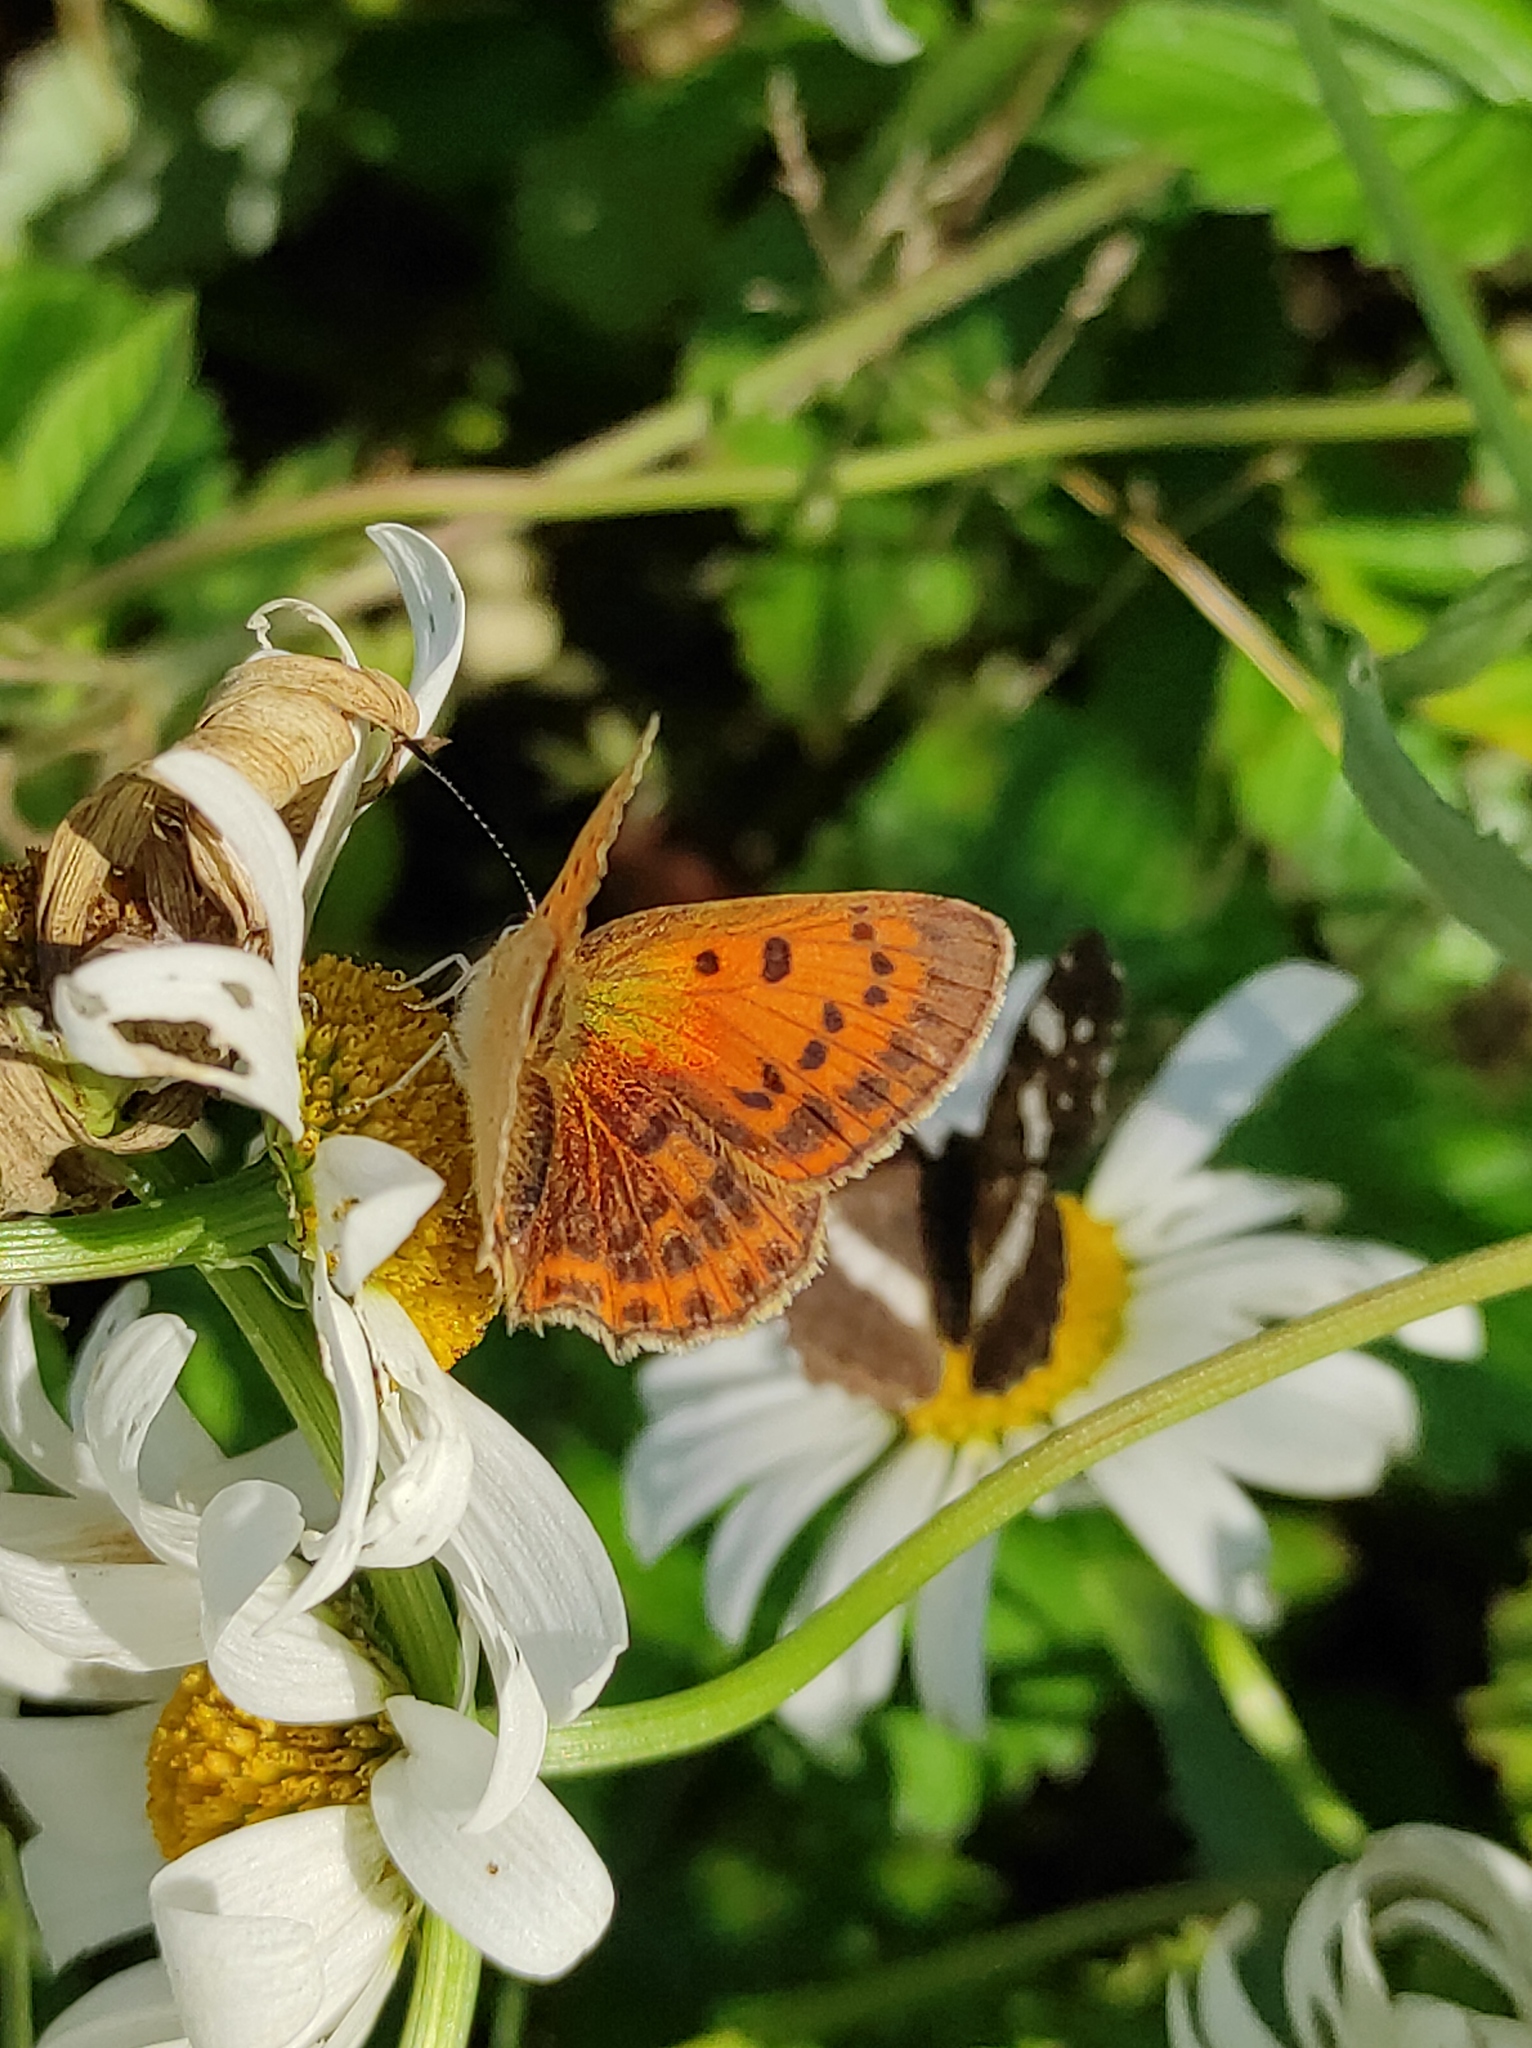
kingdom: Animalia
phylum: Arthropoda
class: Insecta
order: Lepidoptera
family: Lycaenidae
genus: Lycaena
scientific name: Lycaena virgaureae
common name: Scarce copper
